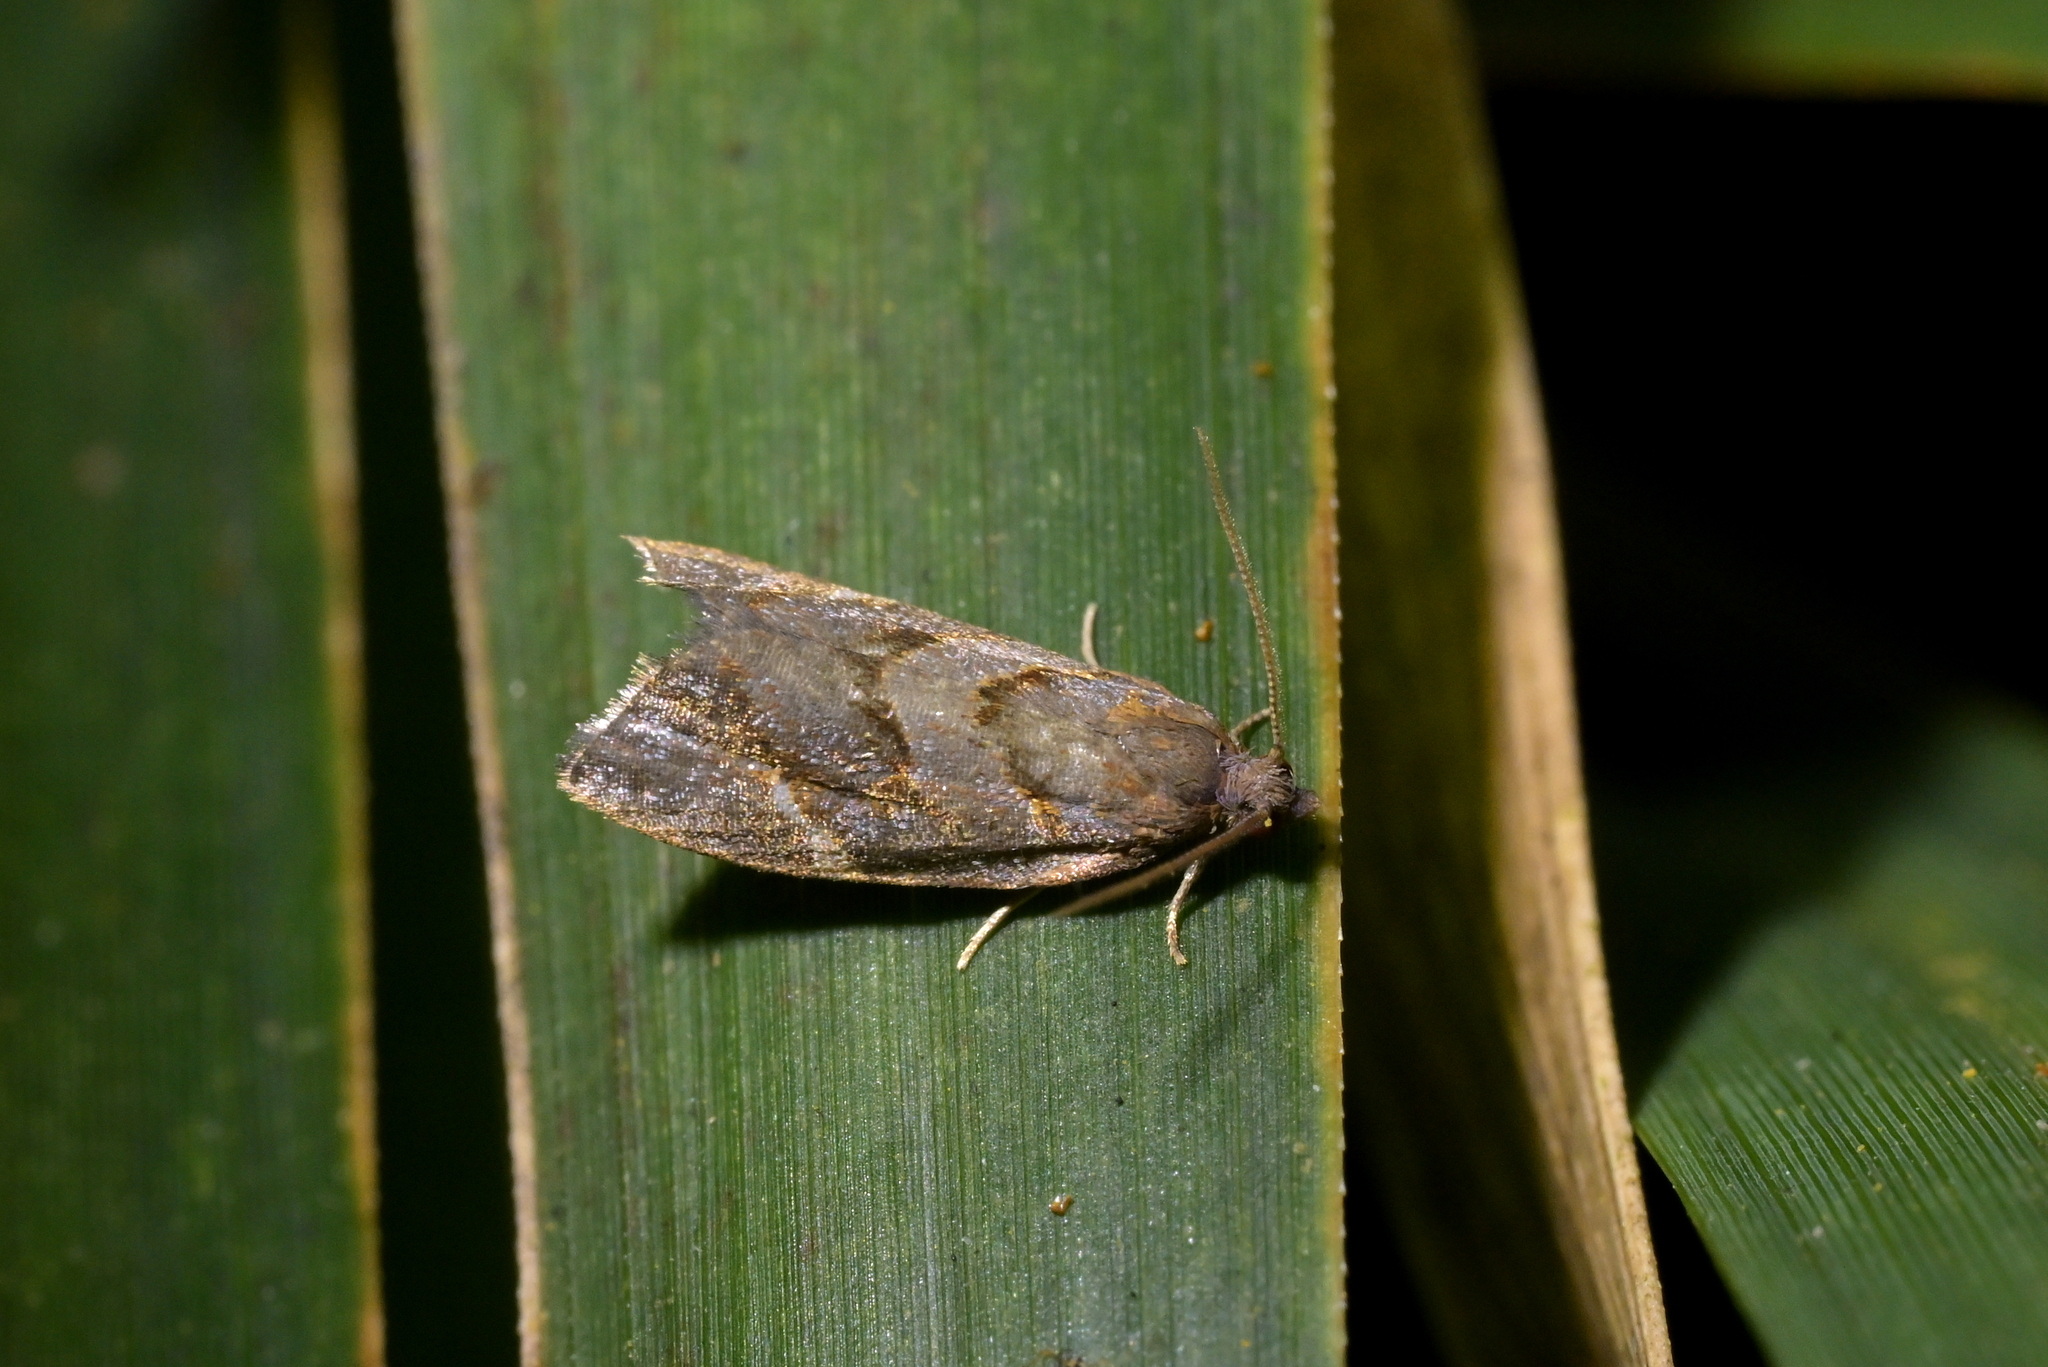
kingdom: Animalia
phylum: Arthropoda
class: Insecta
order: Lepidoptera
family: Tortricidae
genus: Ecclitica
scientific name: Ecclitica torogramma
